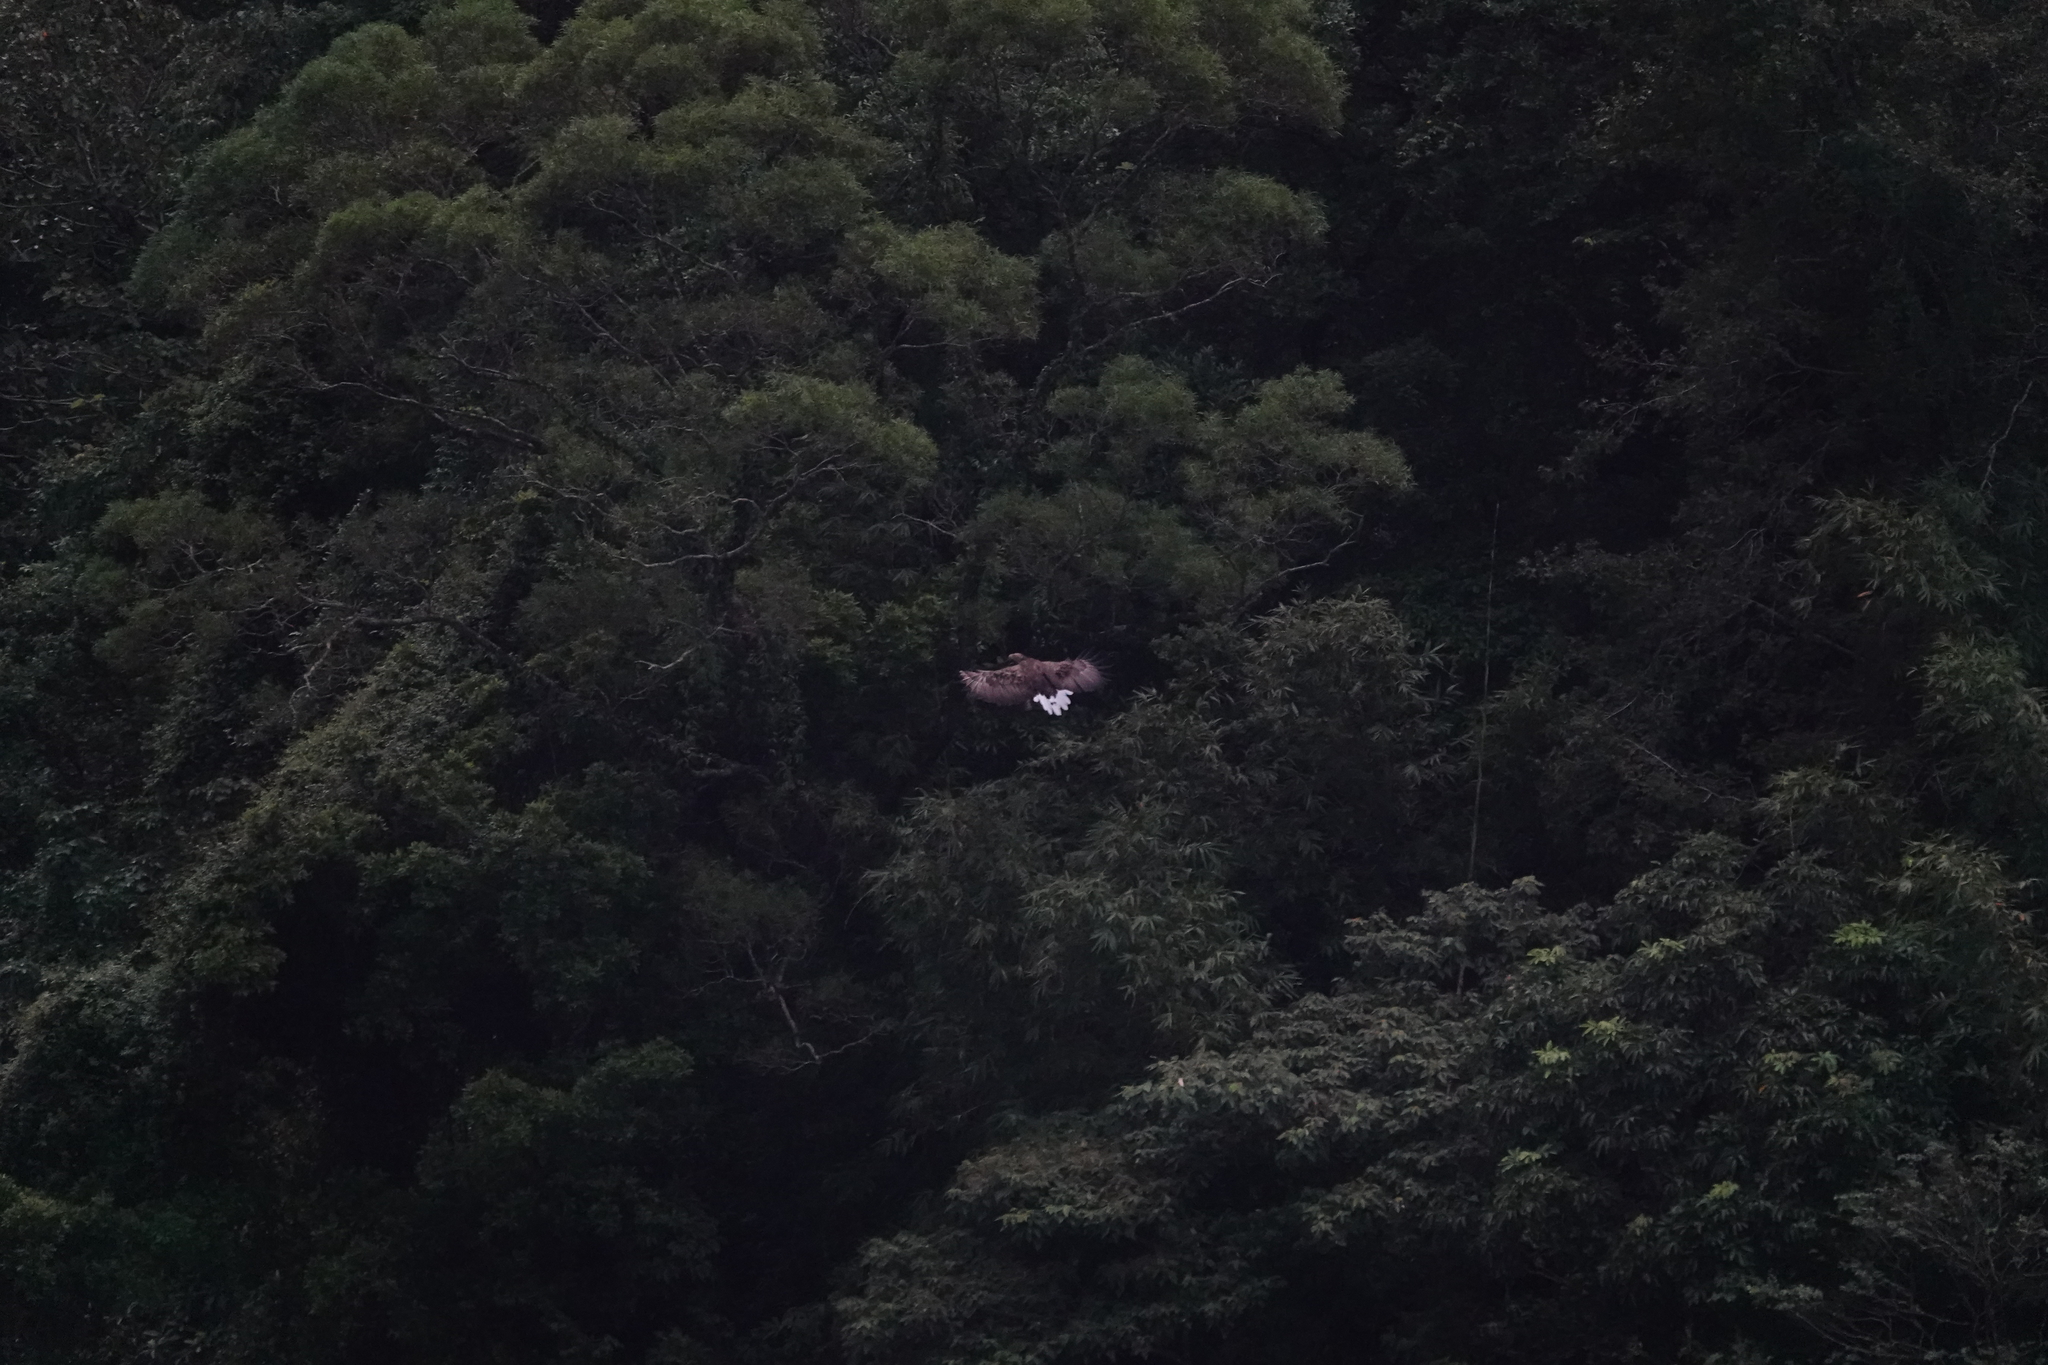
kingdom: Animalia
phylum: Chordata
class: Aves
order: Accipitriformes
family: Accipitridae
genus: Haliaeetus
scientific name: Haliaeetus albicilla
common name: White-tailed eagle
